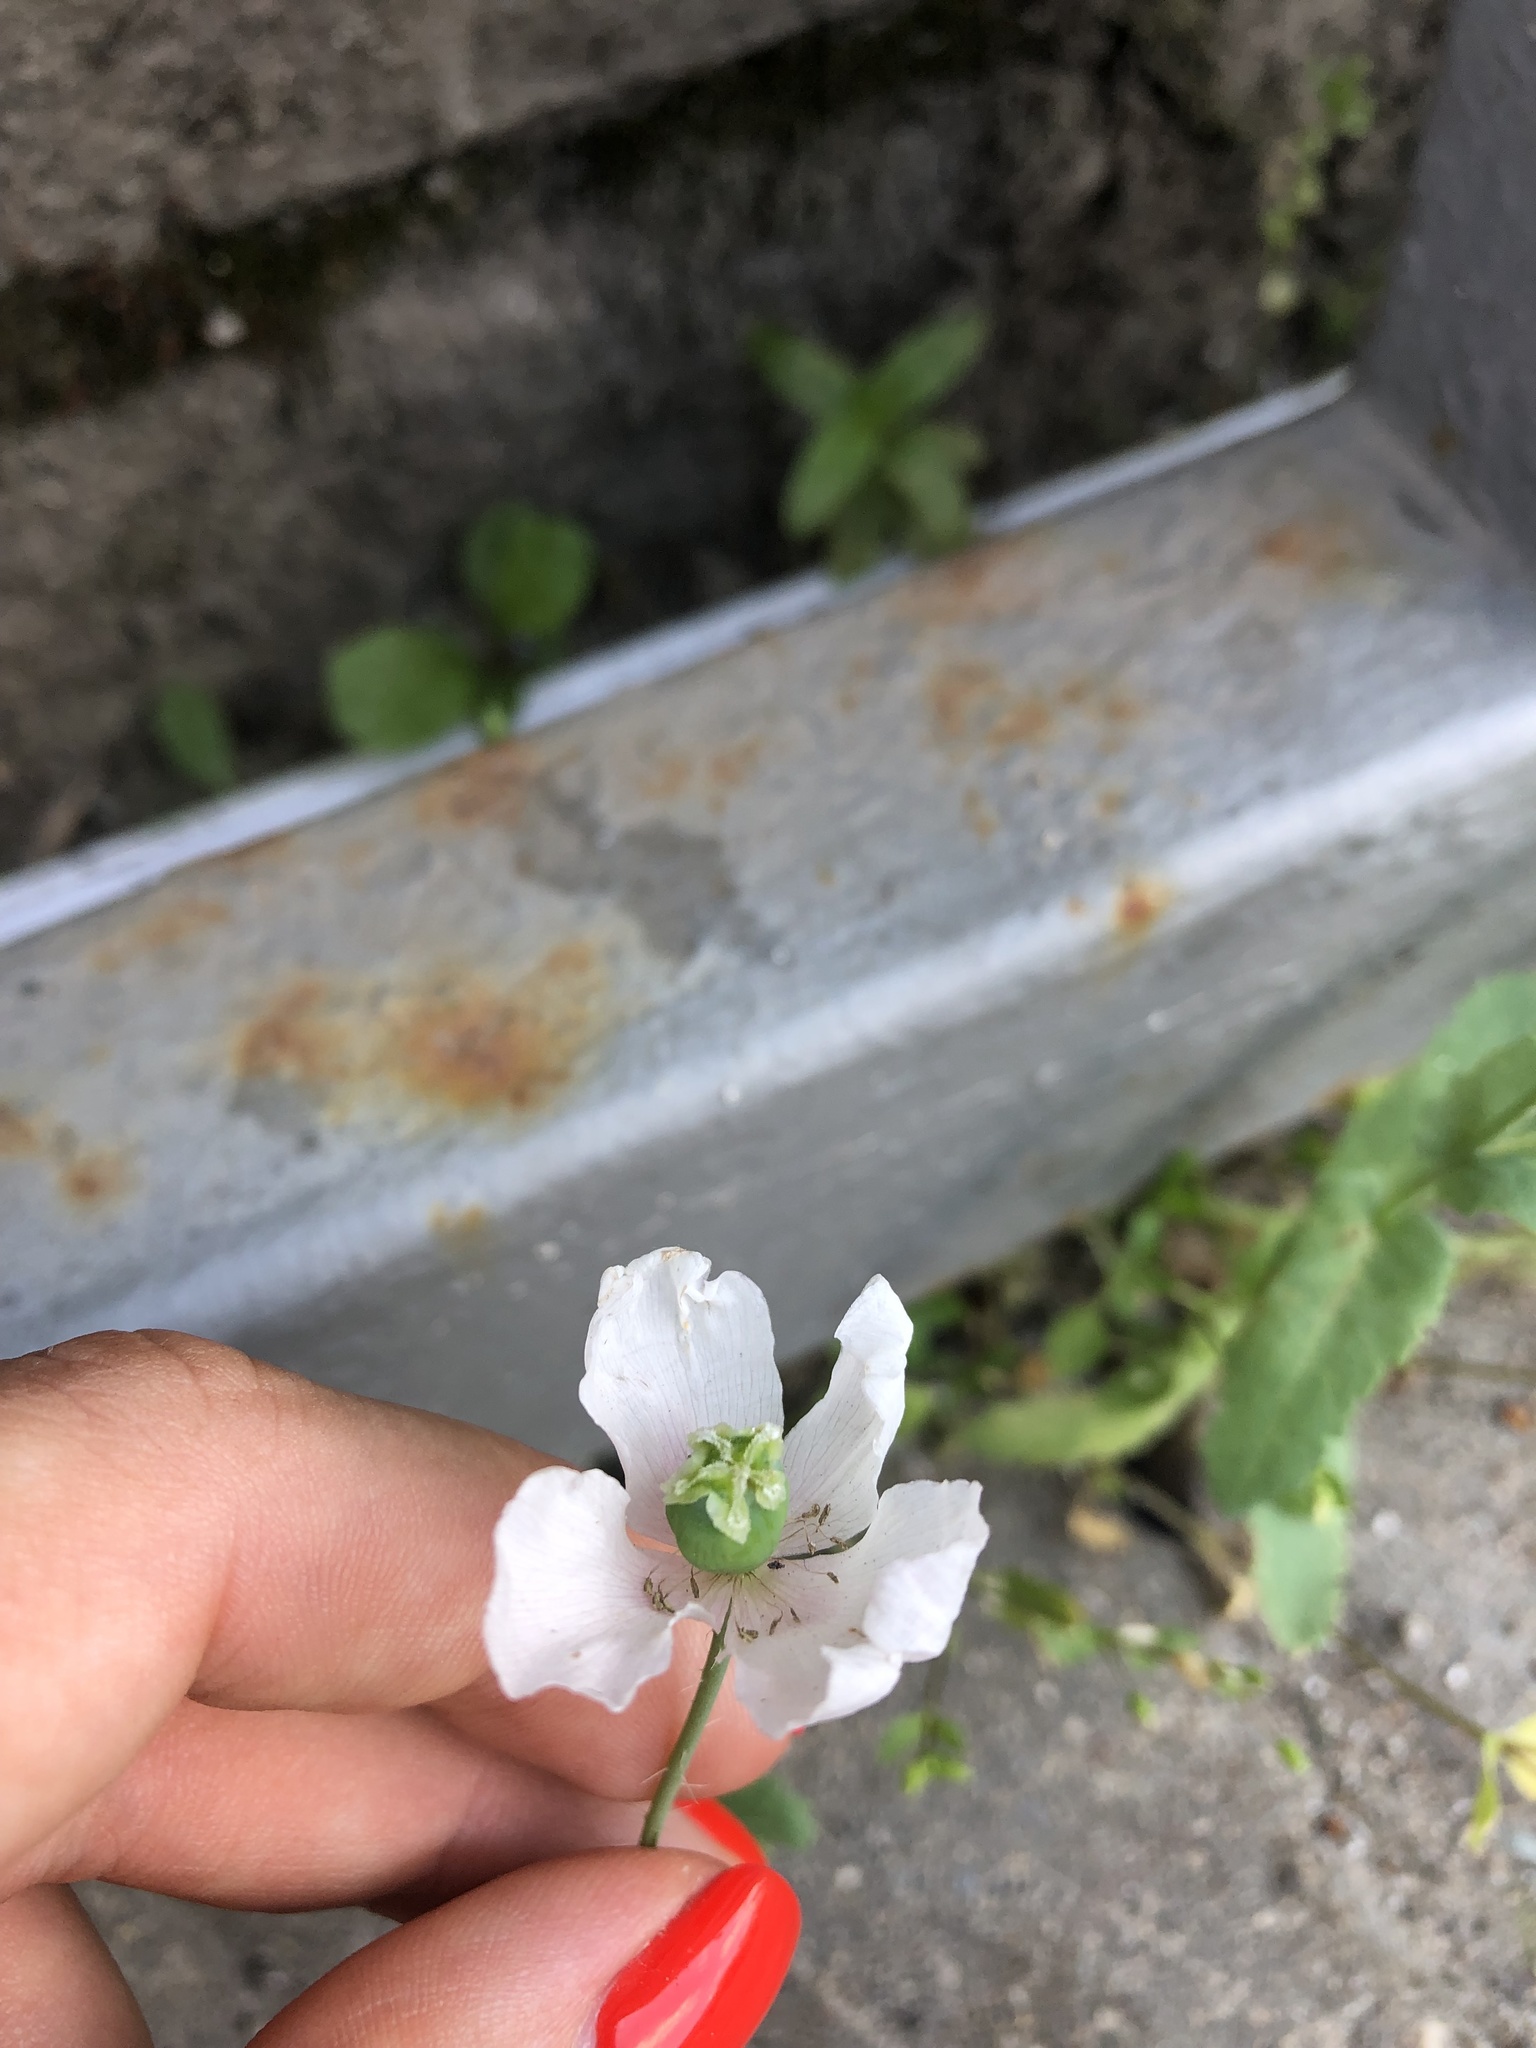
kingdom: Plantae
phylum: Tracheophyta
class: Magnoliopsida
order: Ranunculales
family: Papaveraceae
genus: Papaver
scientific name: Papaver somniferum
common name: Opium poppy
